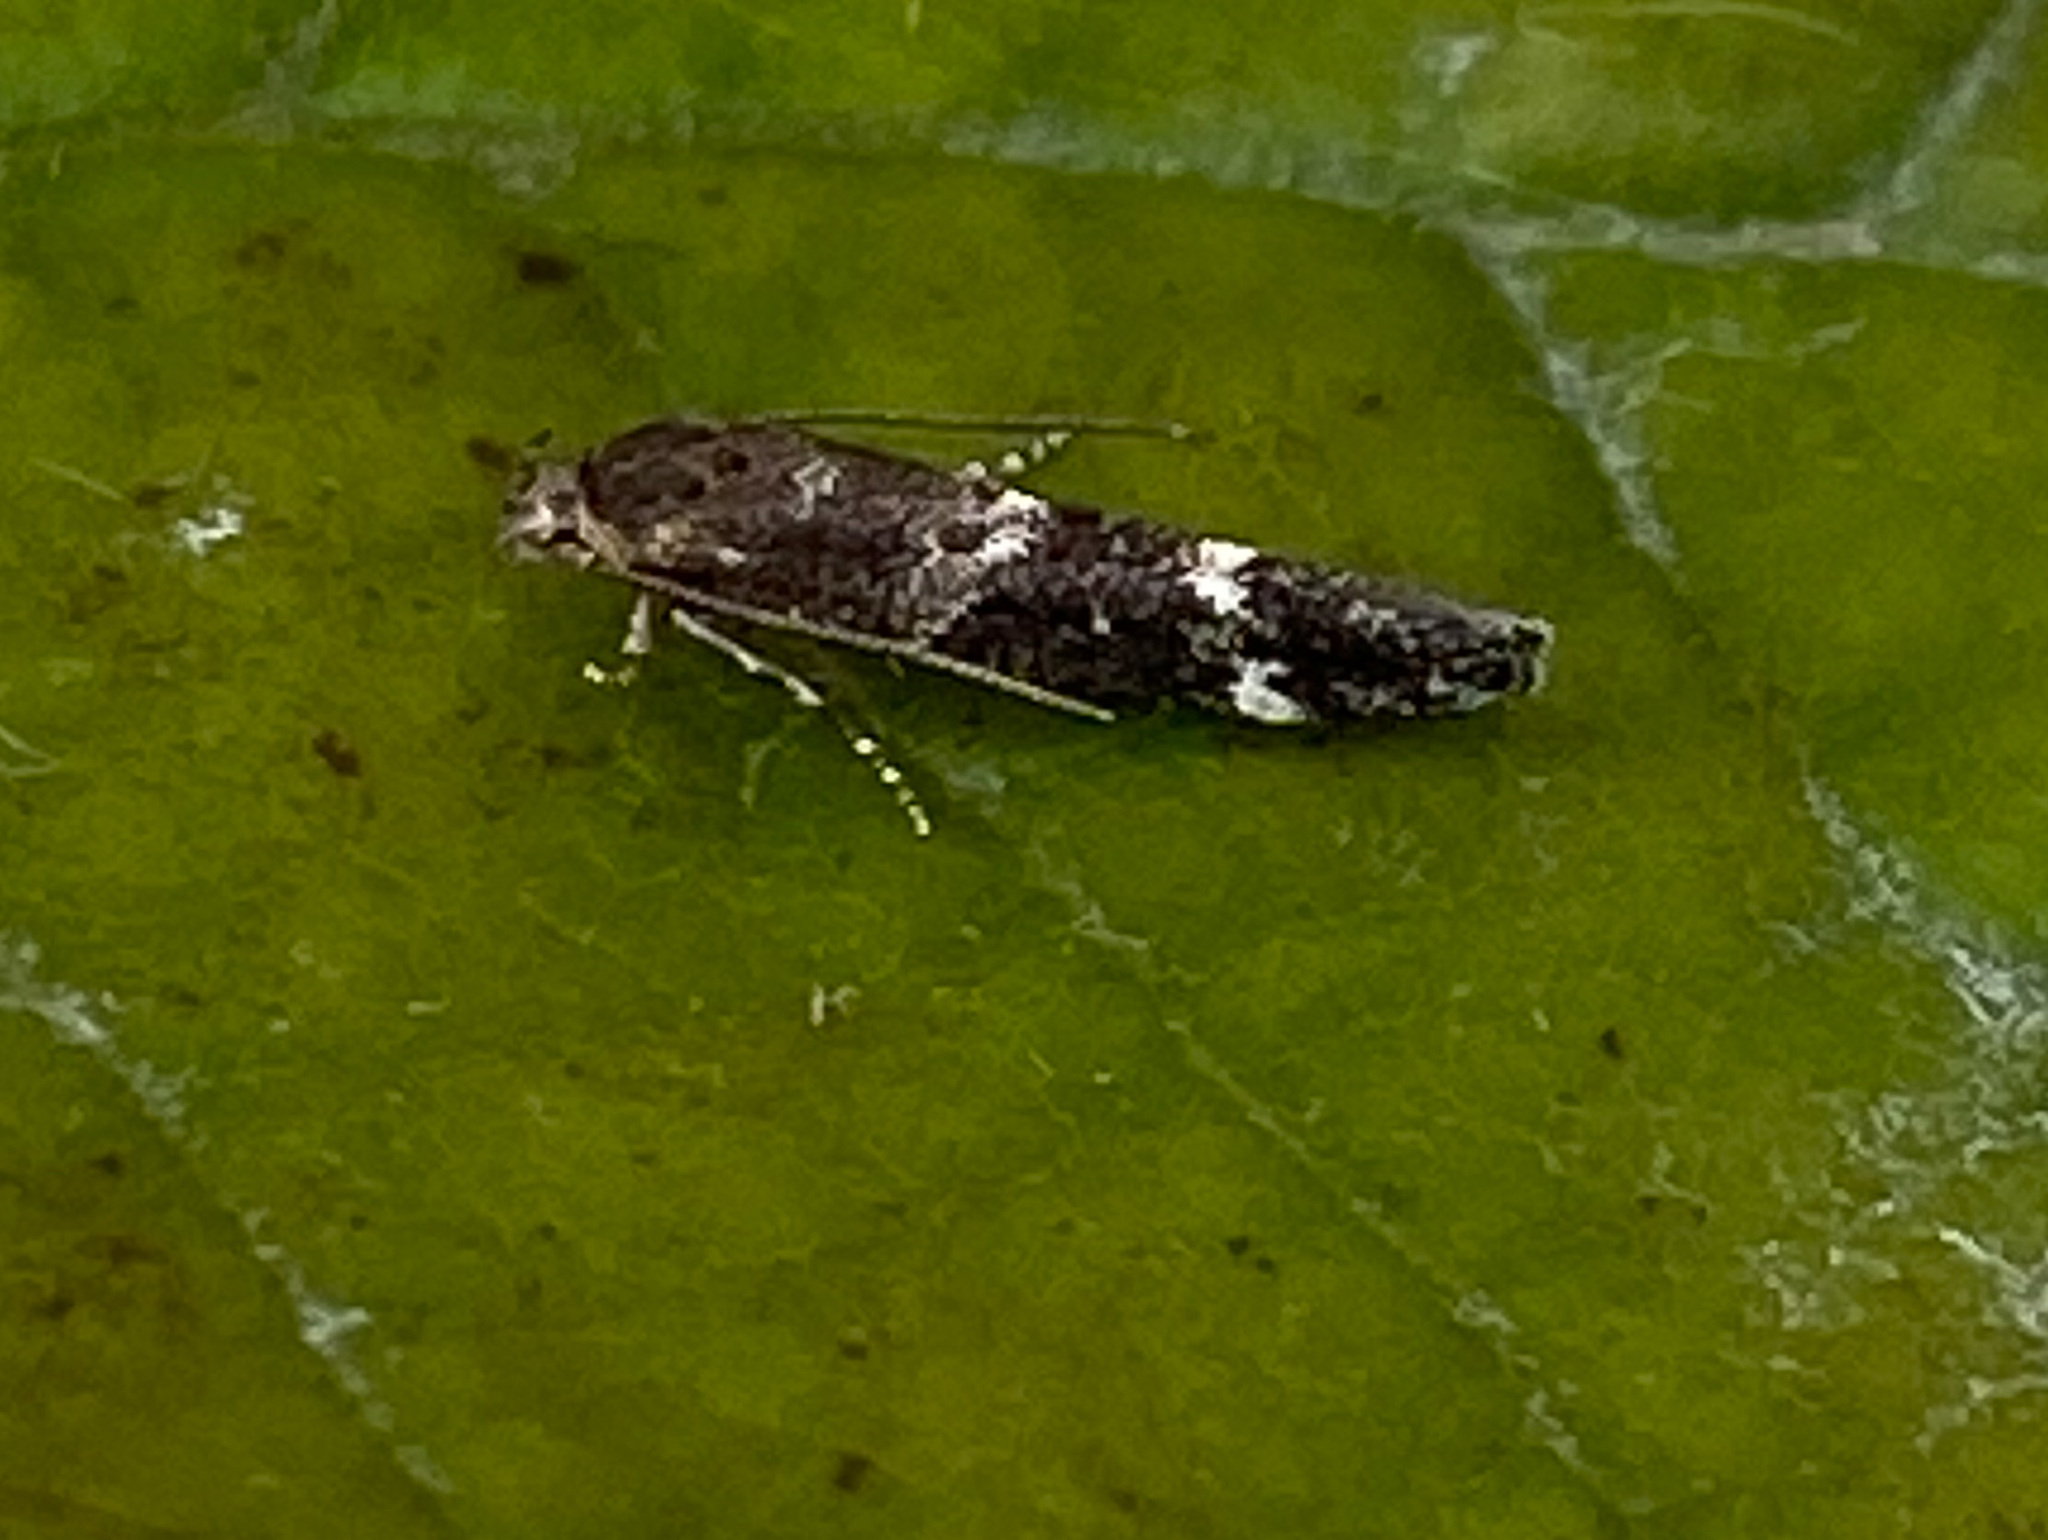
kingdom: Animalia
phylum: Arthropoda
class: Insecta
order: Lepidoptera
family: Momphidae
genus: Mompha
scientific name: Mompha subbistrigella
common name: Garden cosmet
